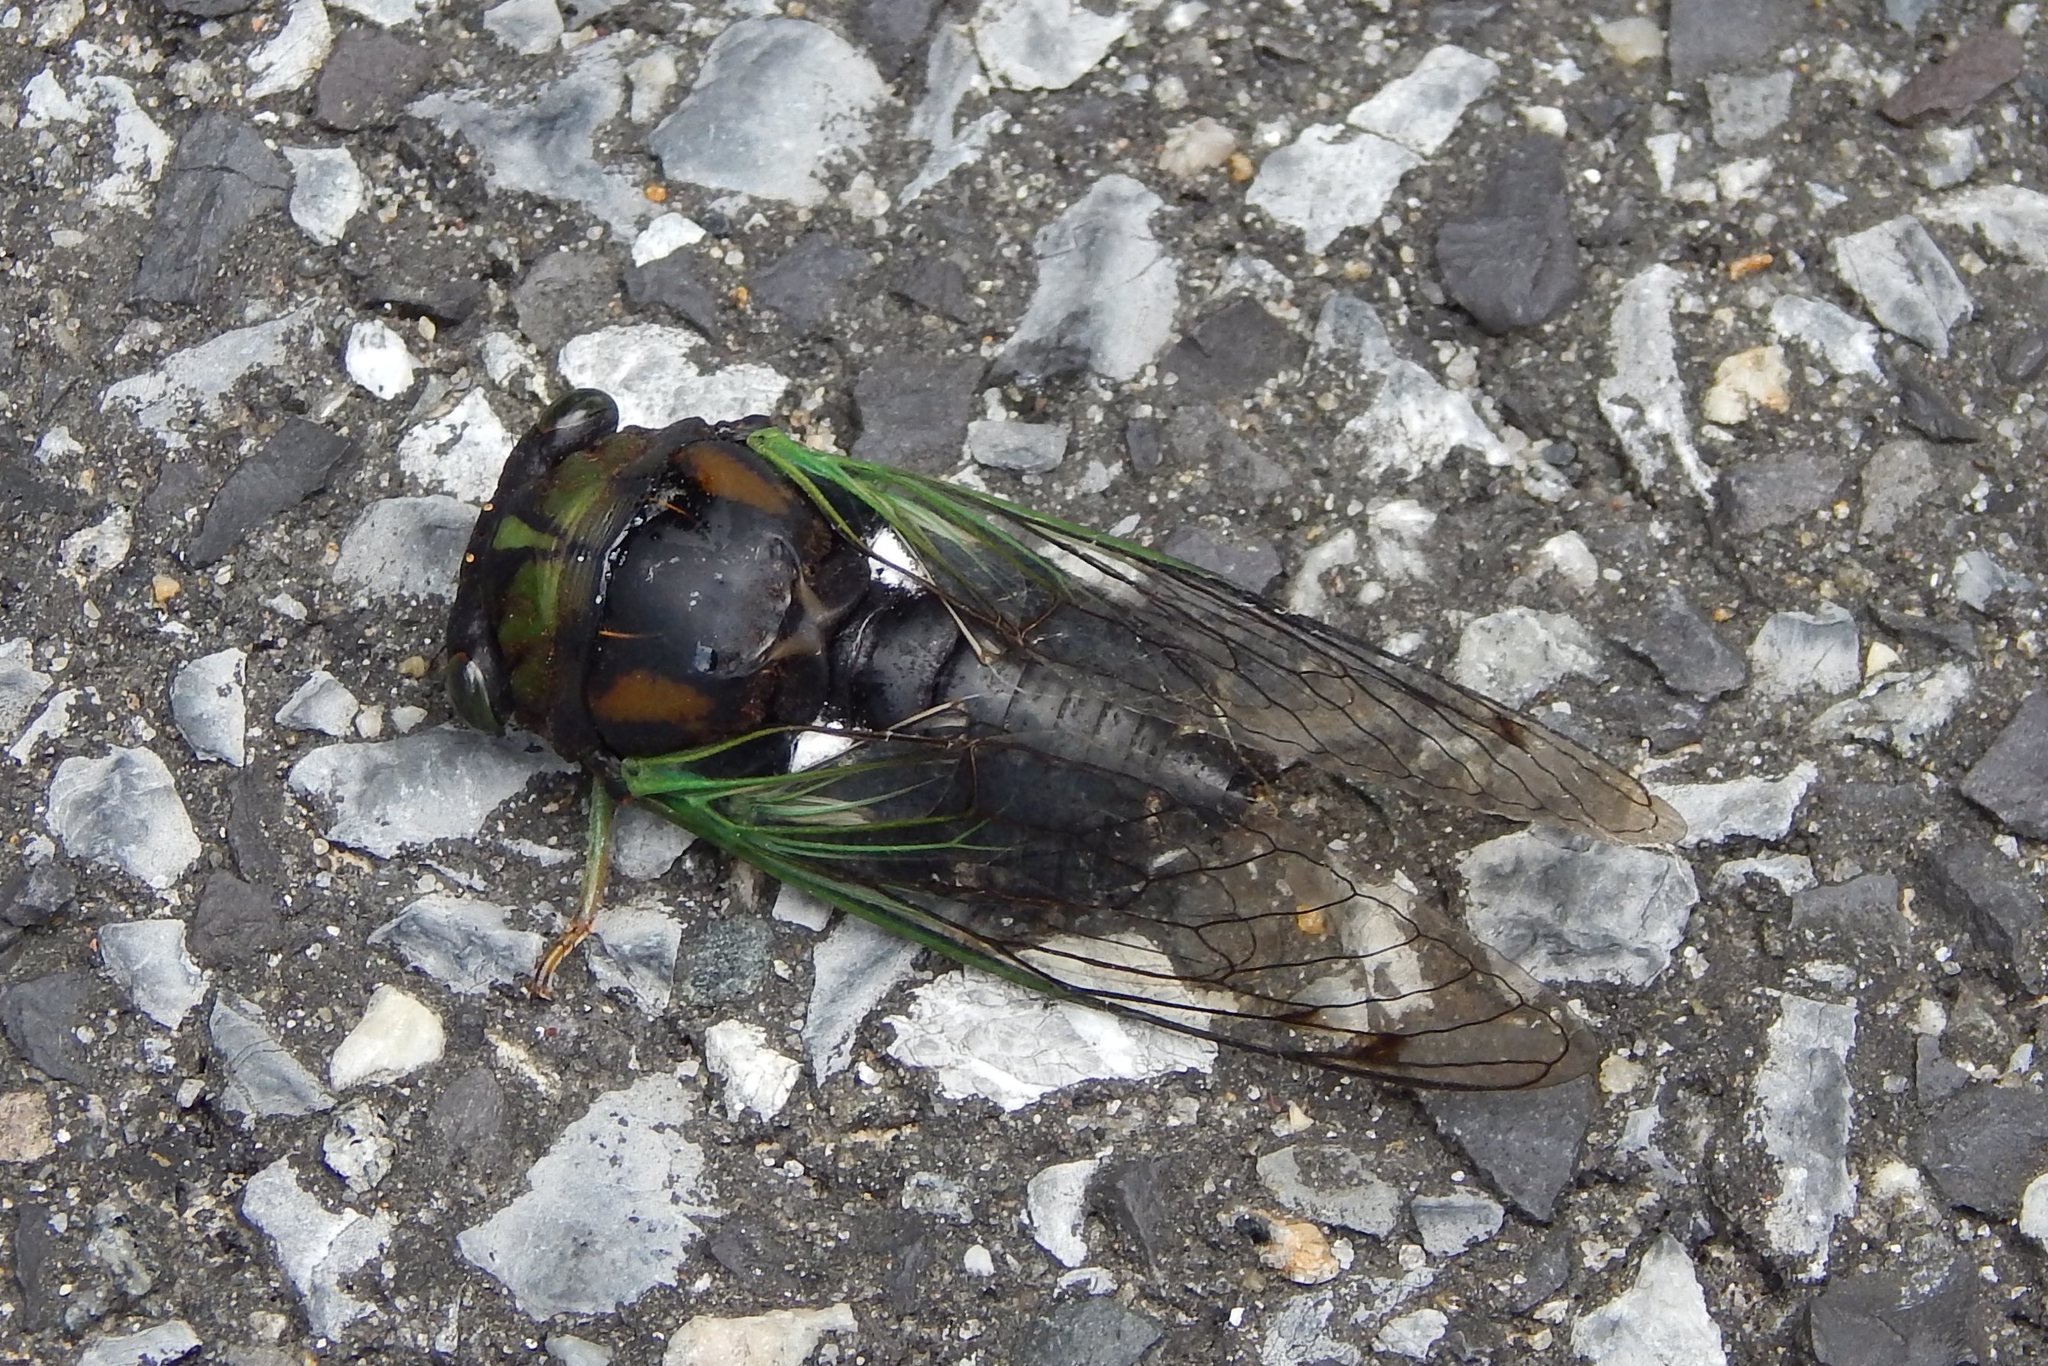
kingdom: Animalia
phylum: Arthropoda
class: Insecta
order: Hemiptera
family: Cicadidae
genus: Neotibicen
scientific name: Neotibicen tibicen
